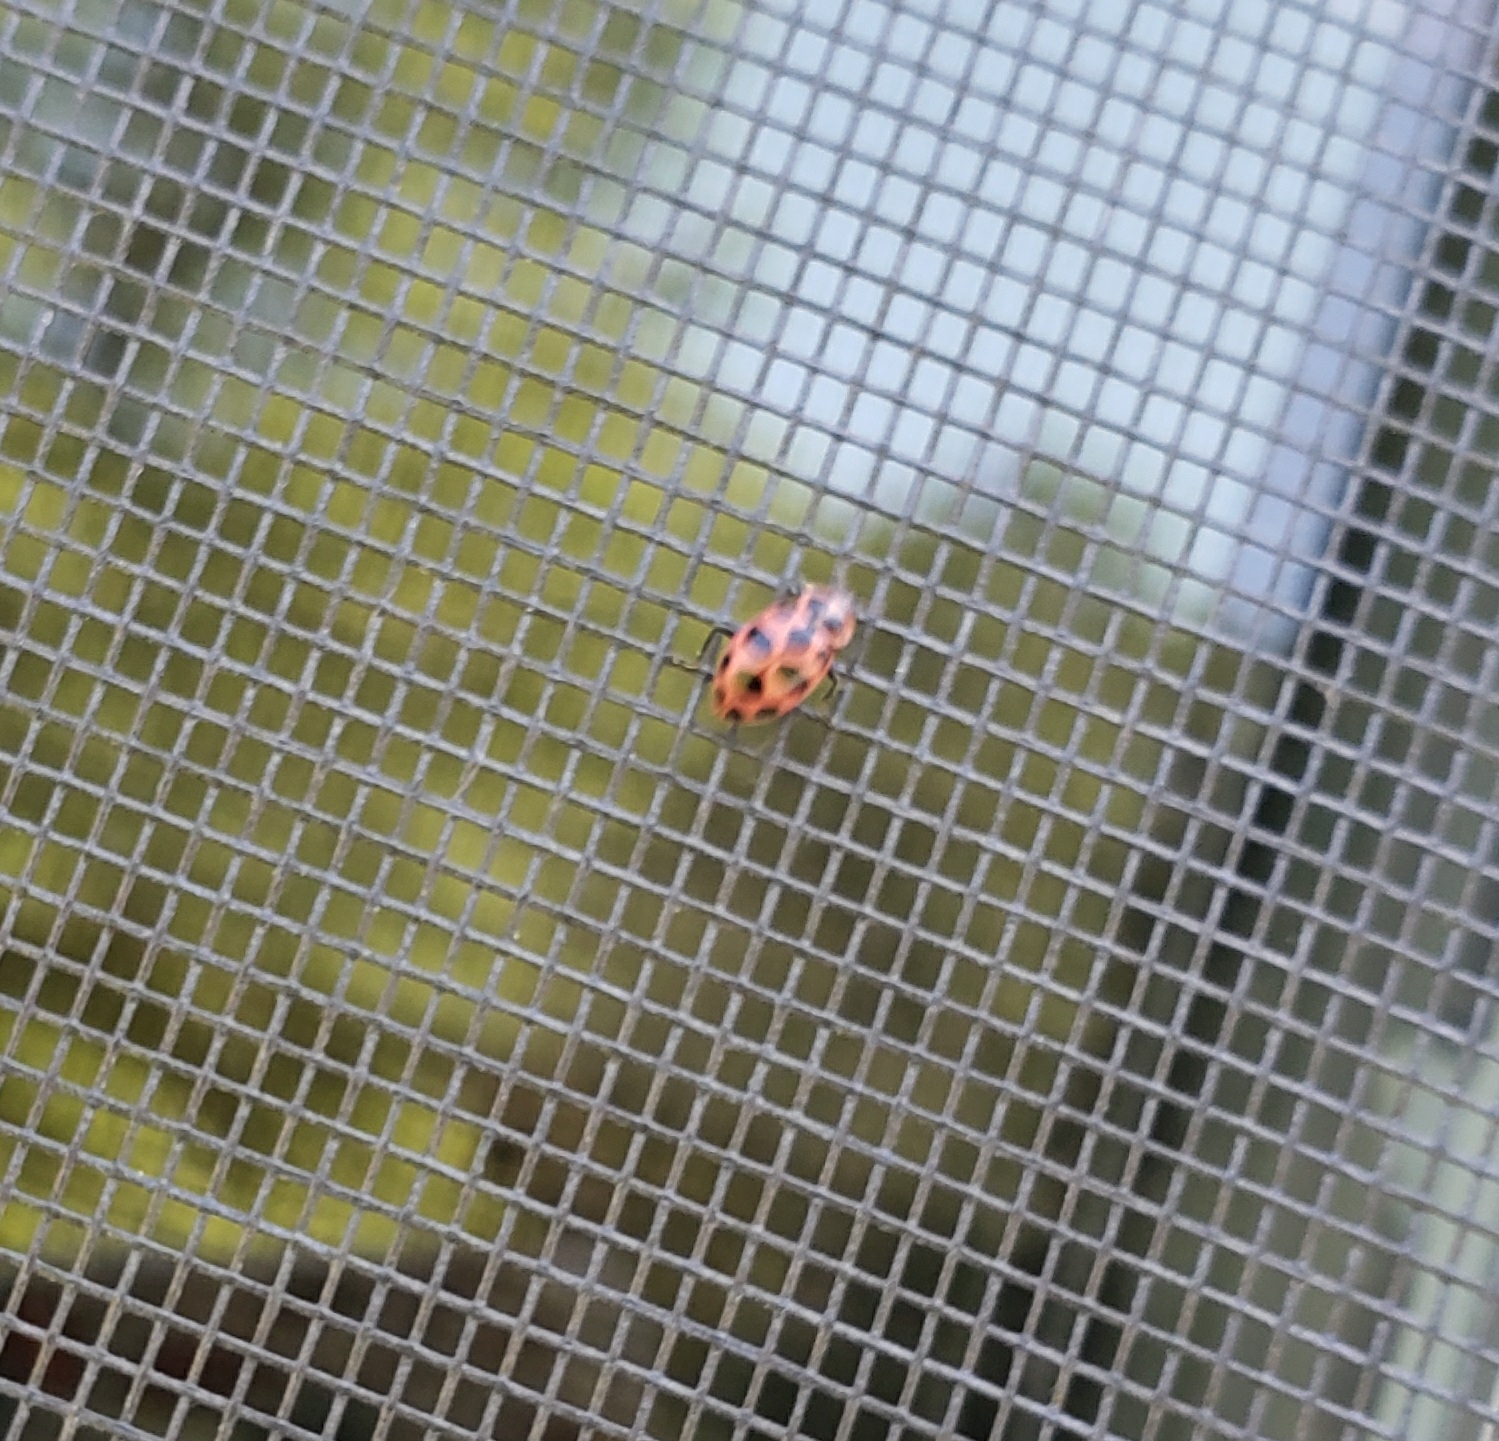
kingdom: Animalia
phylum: Arthropoda
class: Insecta
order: Coleoptera
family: Coccinellidae
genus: Coleomegilla
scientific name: Coleomegilla maculata
